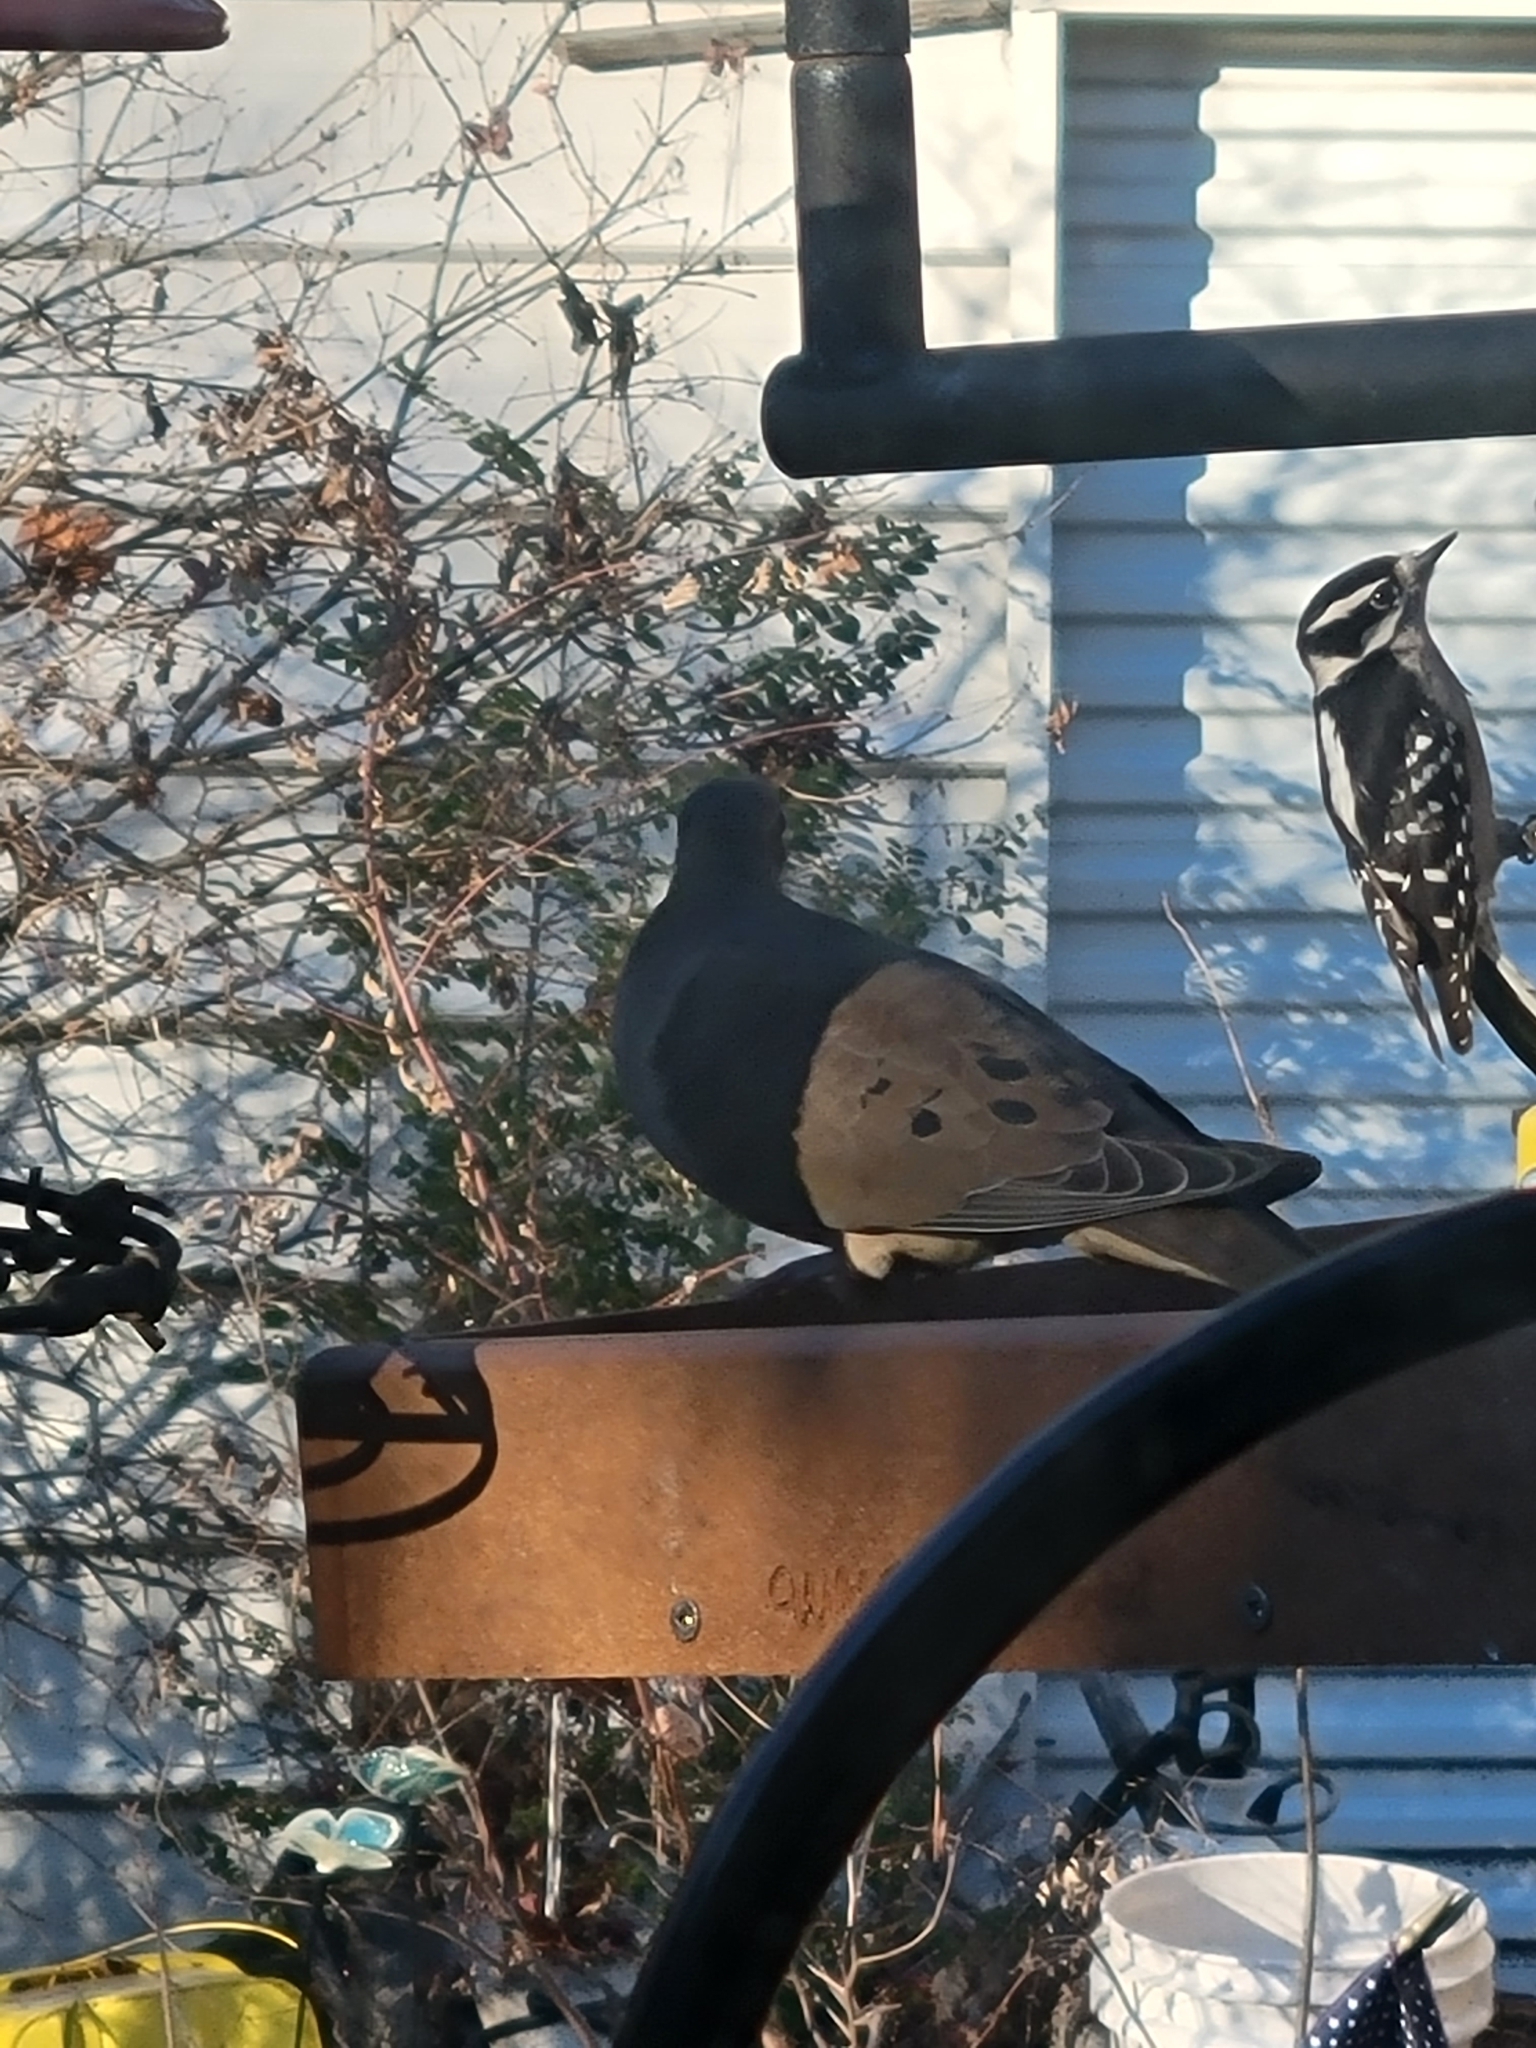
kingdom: Animalia
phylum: Chordata
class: Aves
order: Columbiformes
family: Columbidae
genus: Zenaida
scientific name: Zenaida macroura
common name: Mourning dove
